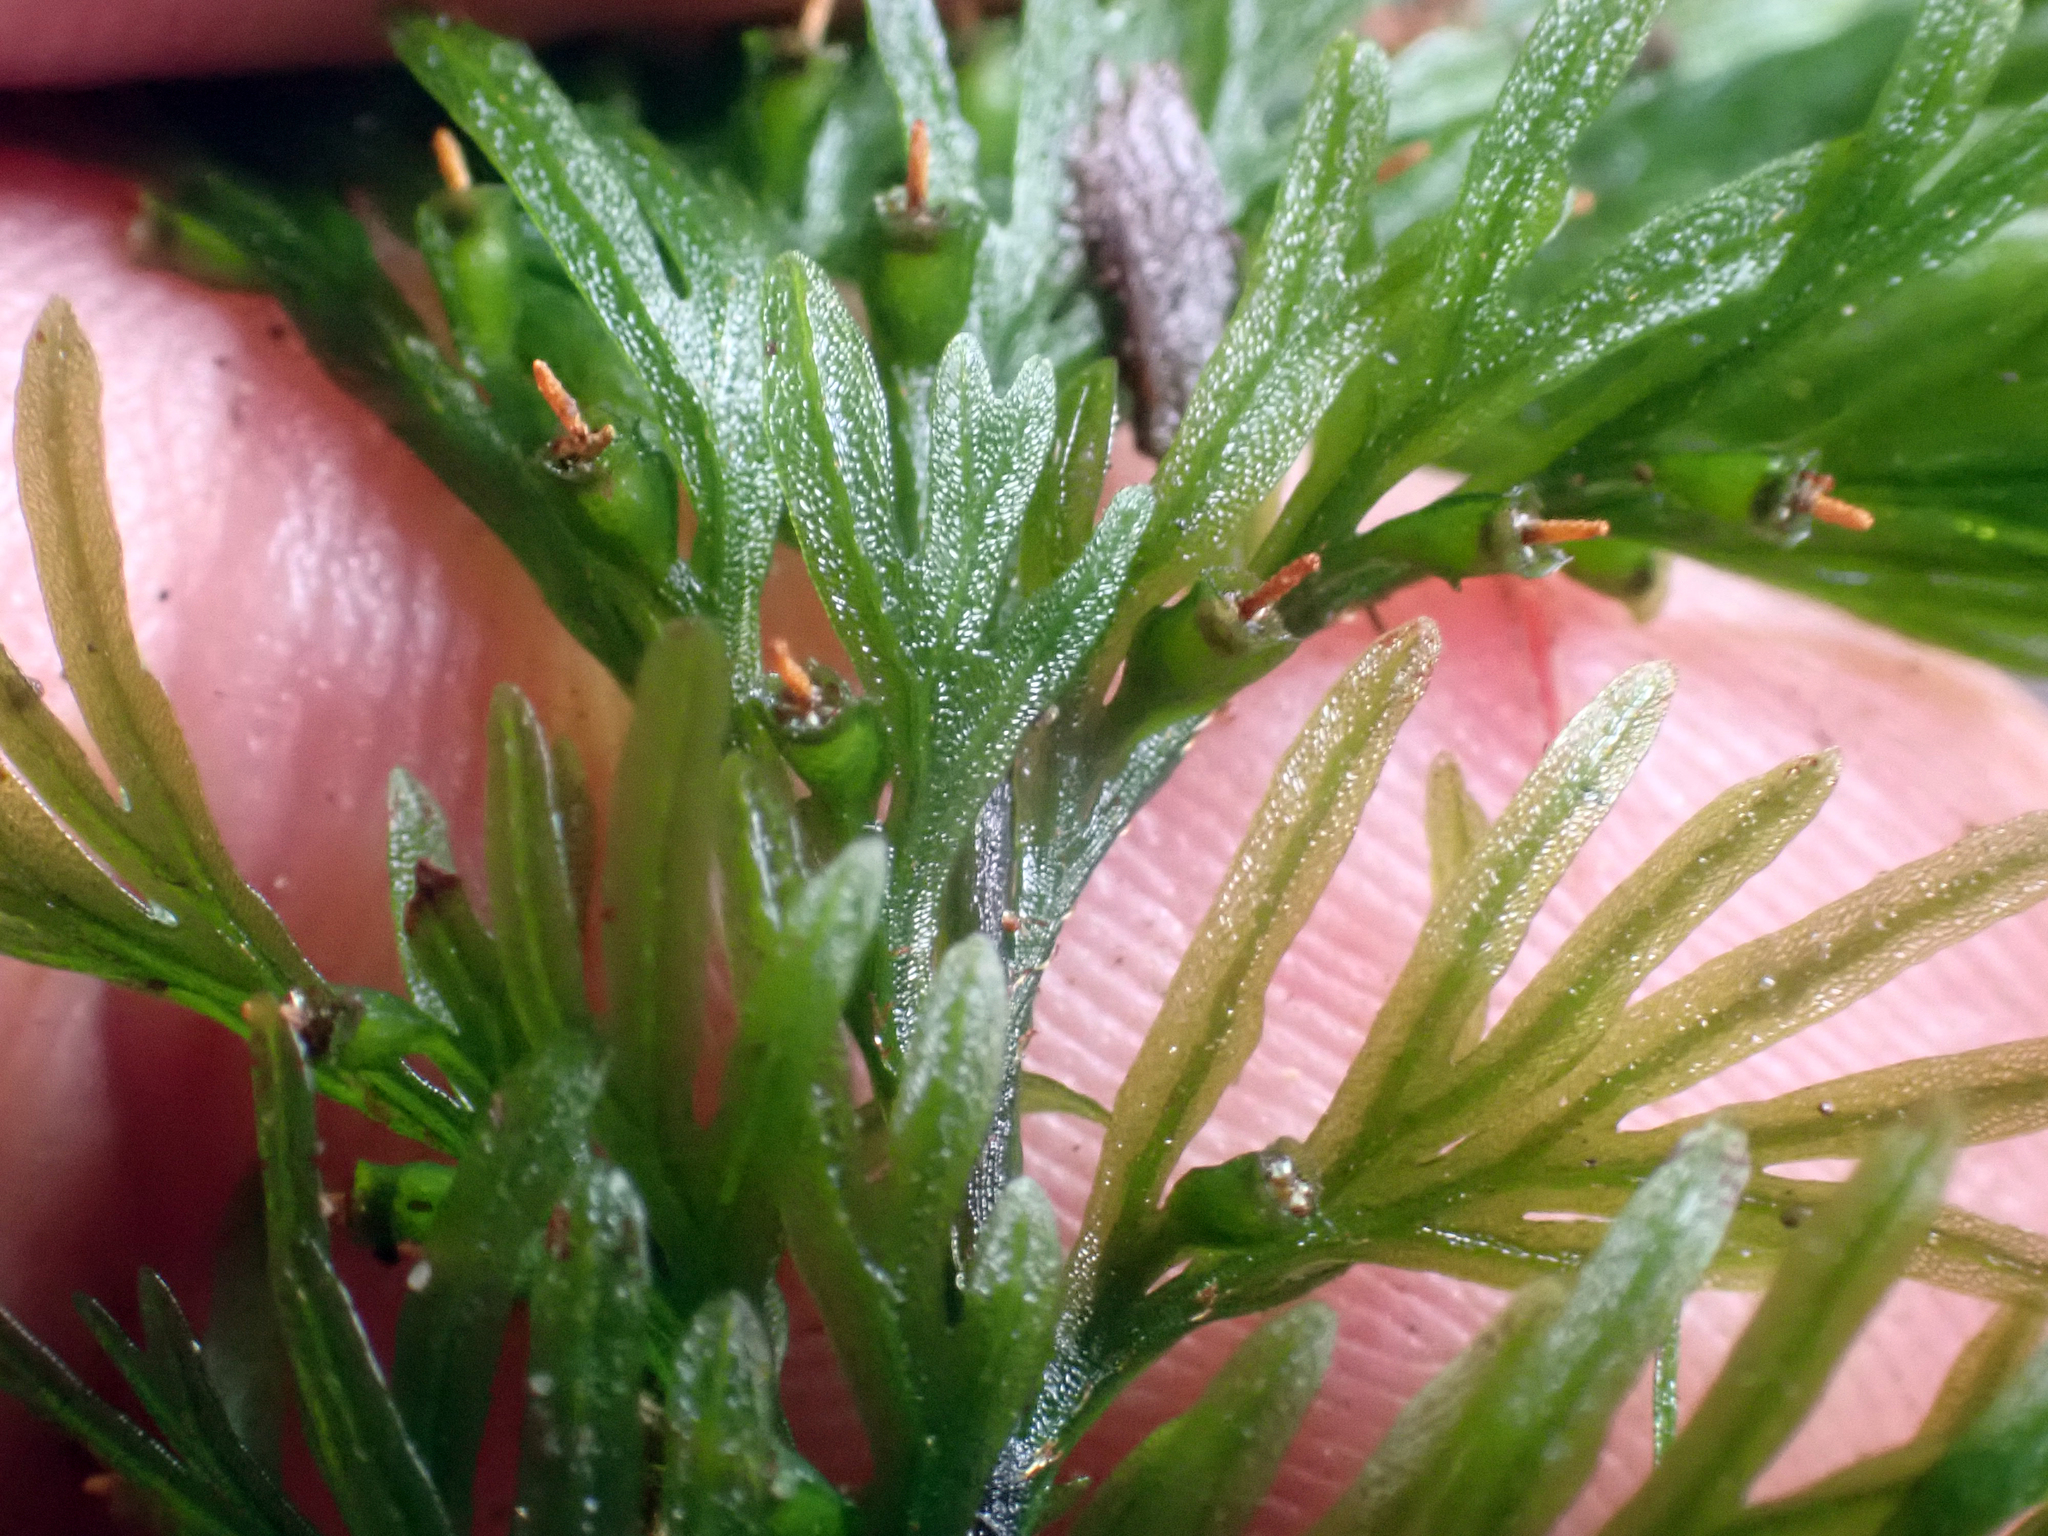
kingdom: Plantae
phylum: Tracheophyta
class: Polypodiopsida
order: Hymenophyllales
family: Hymenophyllaceae
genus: Abrodictyum
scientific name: Abrodictyum strictum
